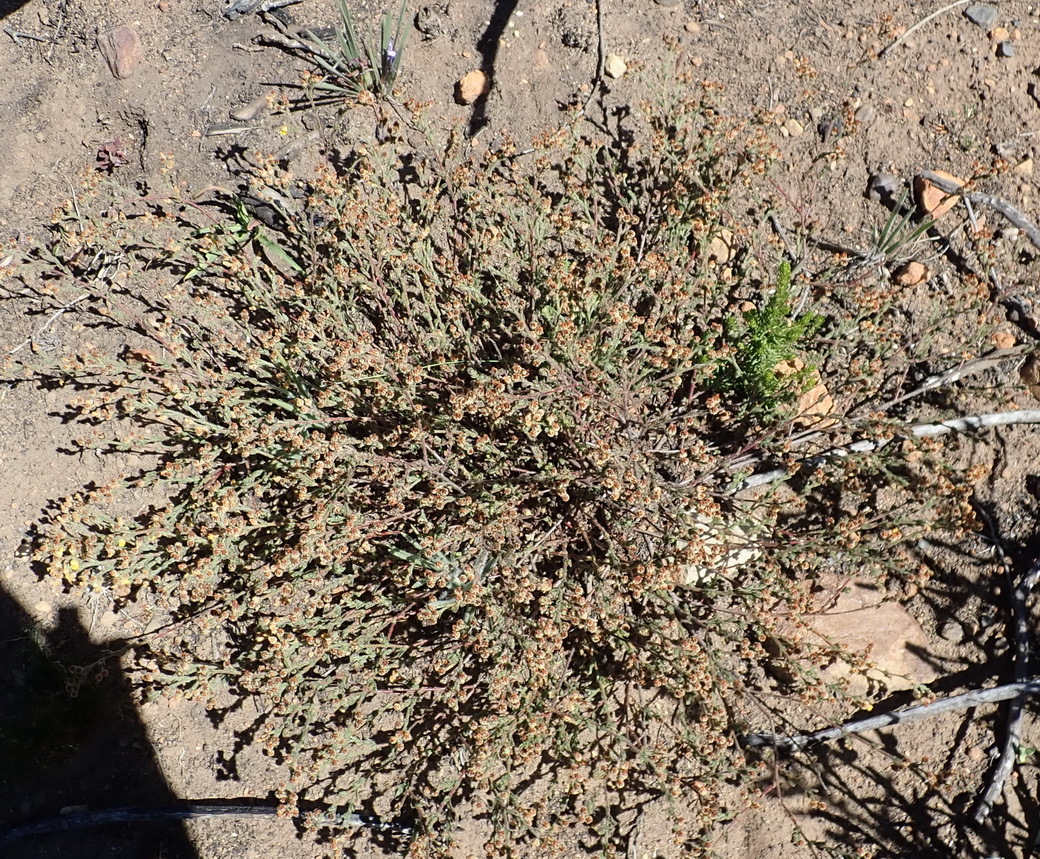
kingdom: Plantae
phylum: Tracheophyta
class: Magnoliopsida
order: Malvales
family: Malvaceae
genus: Hermannia
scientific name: Hermannia stipulacea
